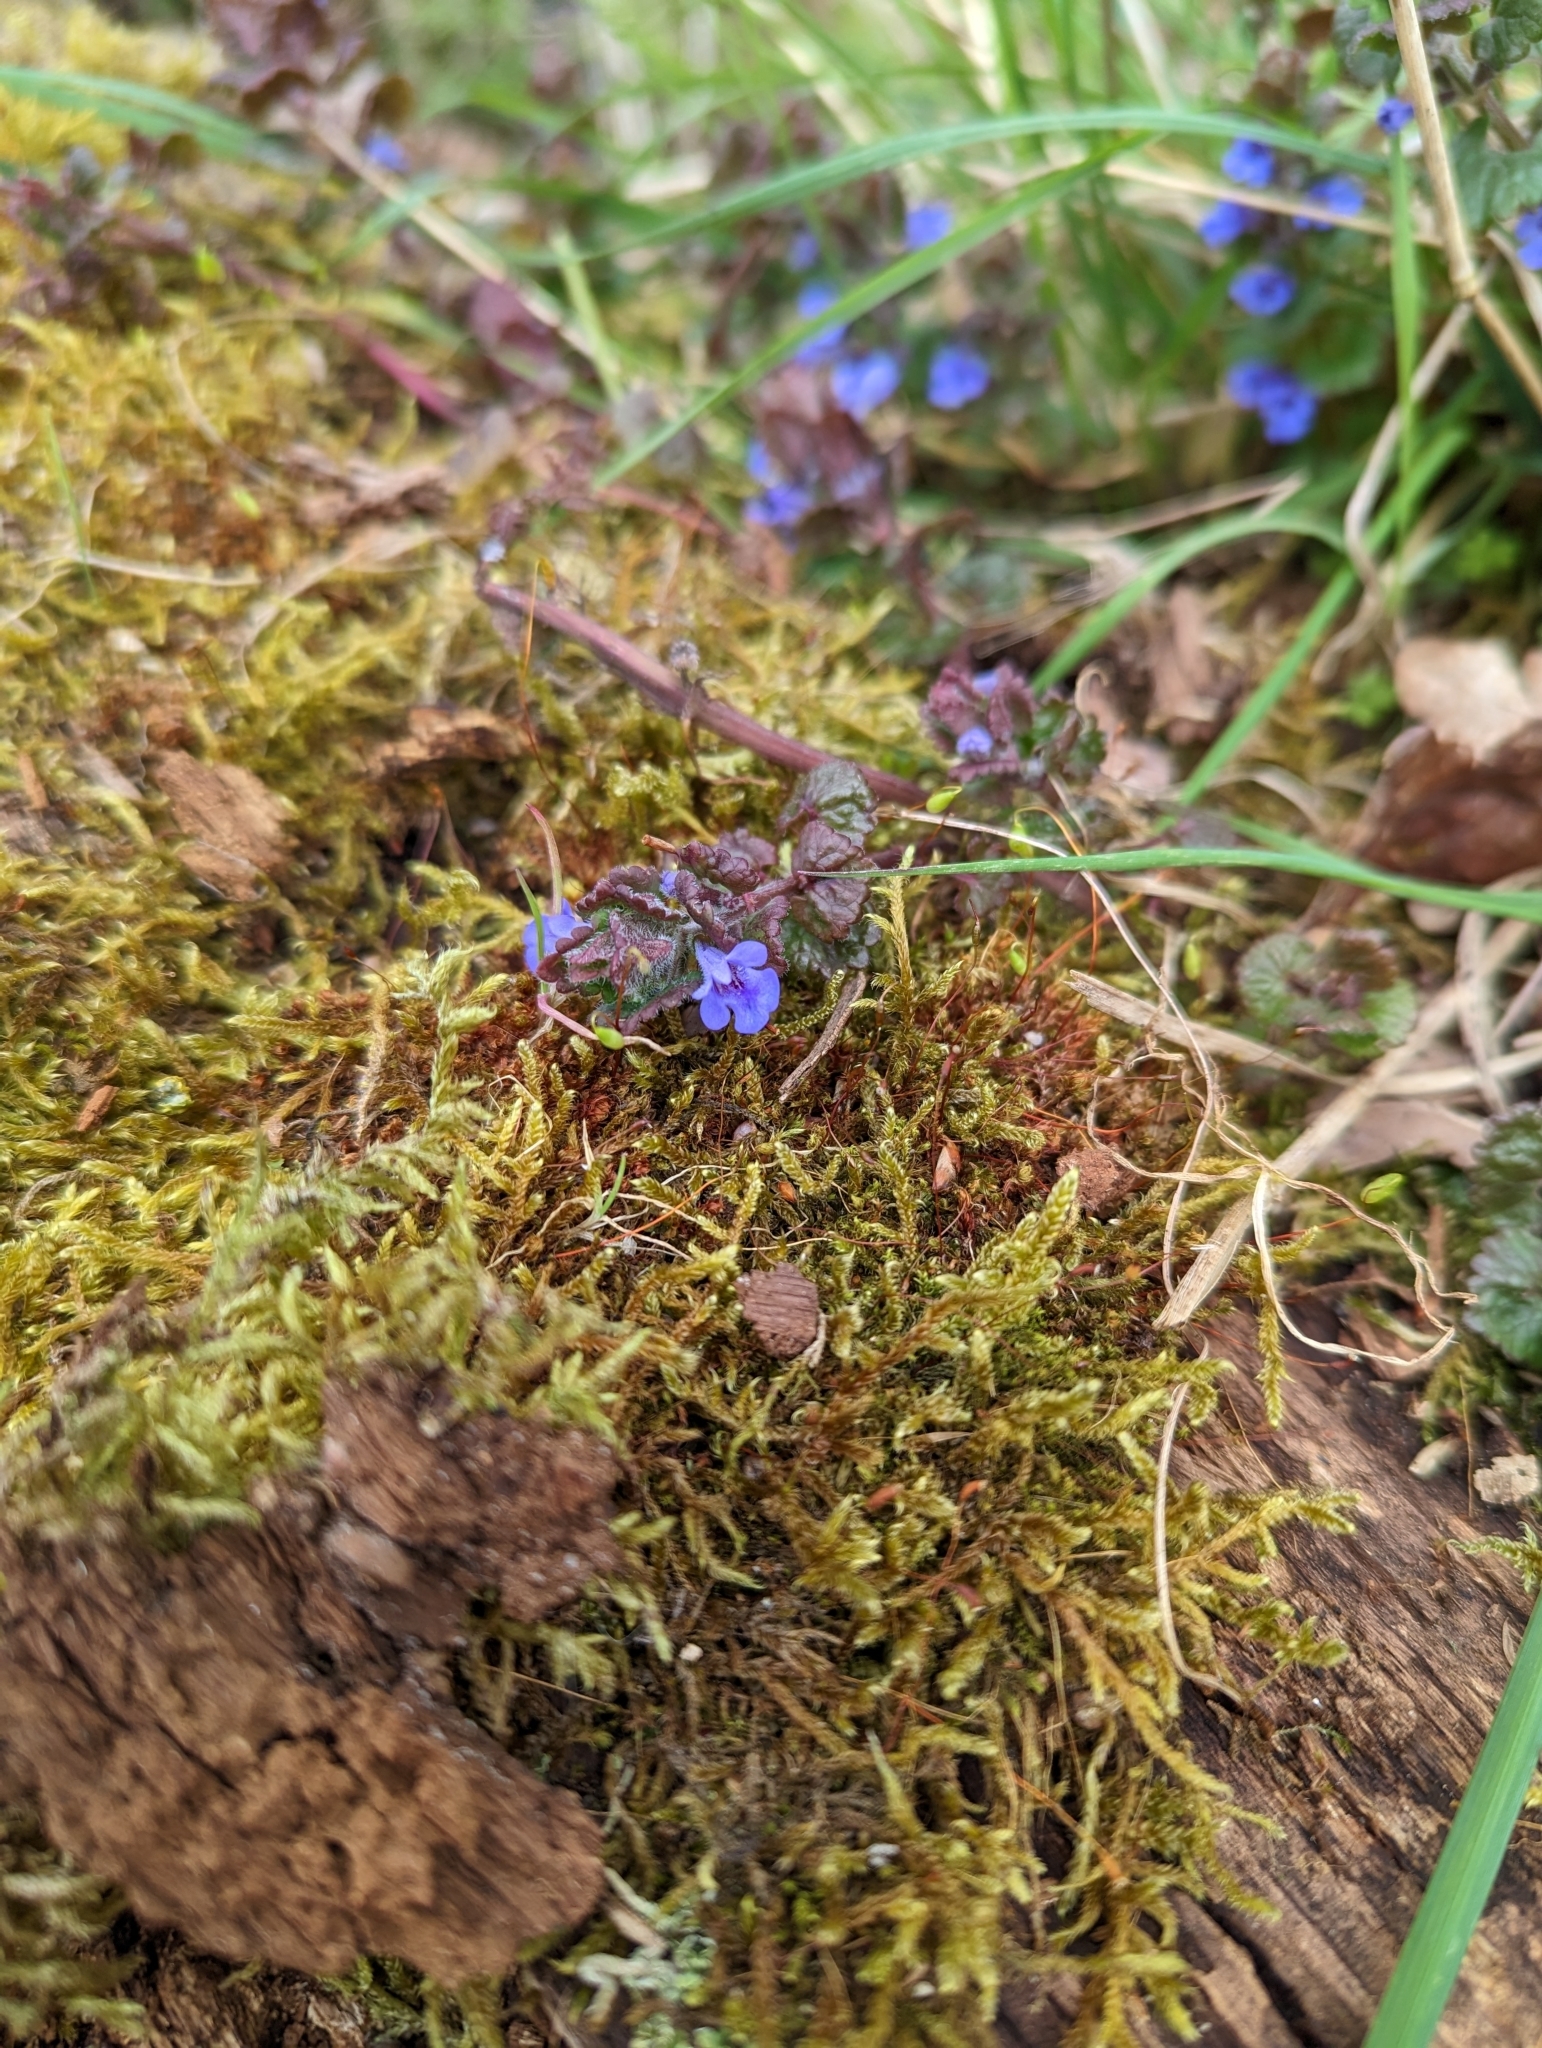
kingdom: Plantae
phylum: Tracheophyta
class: Magnoliopsida
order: Lamiales
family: Lamiaceae
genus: Glechoma
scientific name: Glechoma hederacea
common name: Ground ivy
